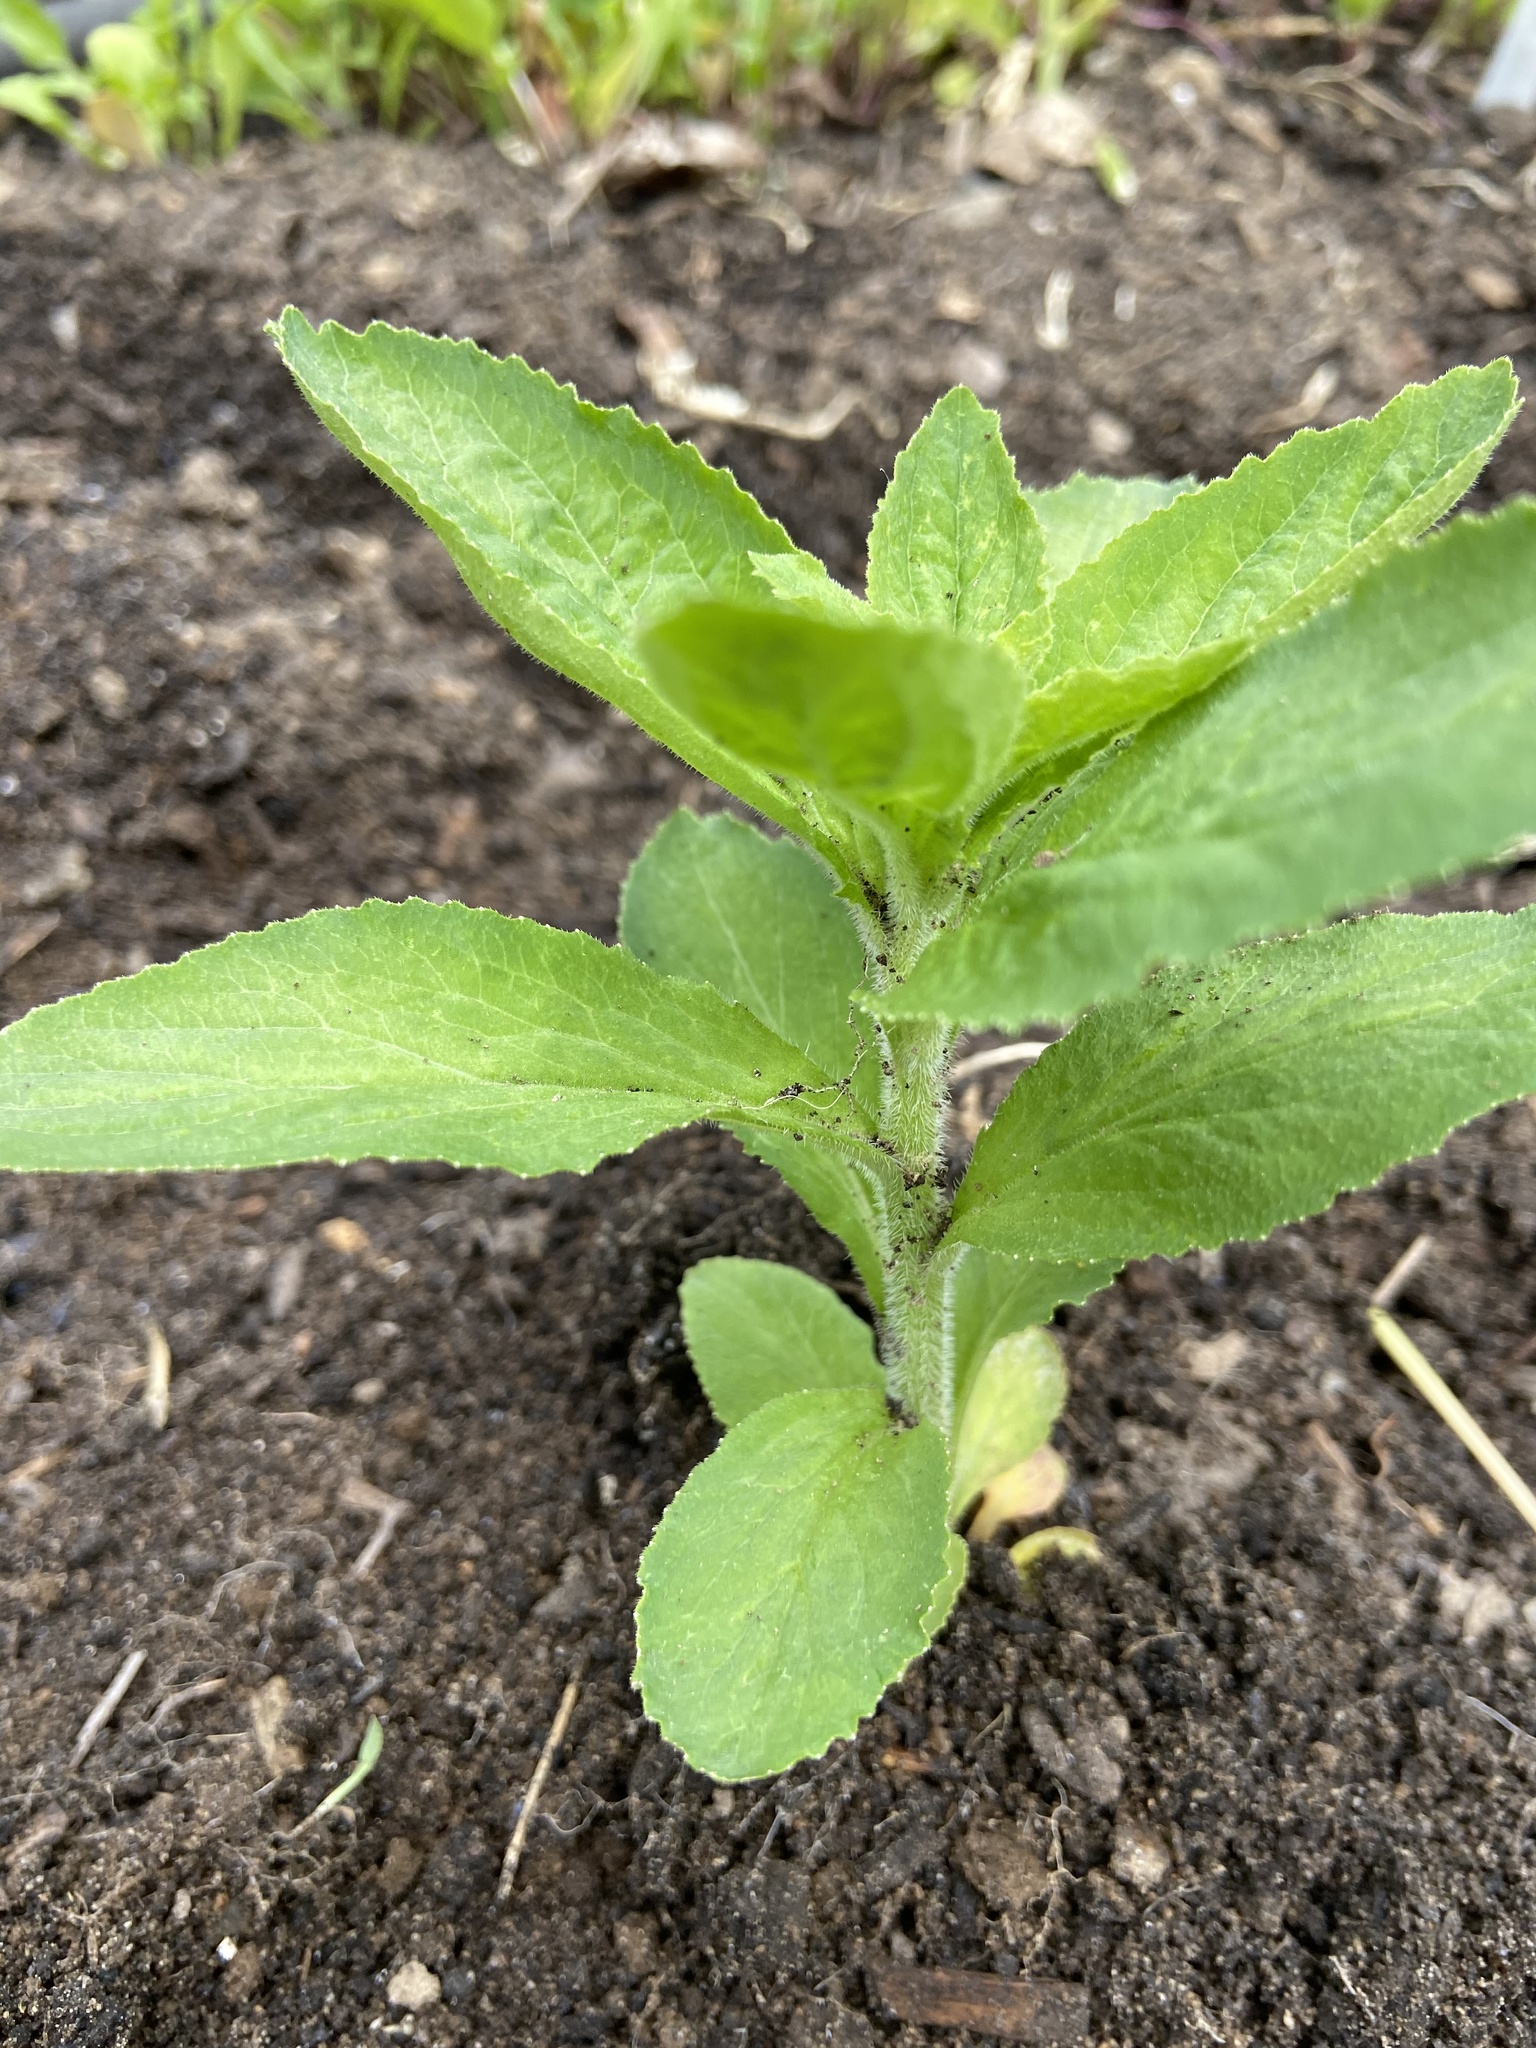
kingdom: Plantae
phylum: Tracheophyta
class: Magnoliopsida
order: Asterales
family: Campanulaceae
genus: Lobelia
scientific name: Lobelia inflata
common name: Indian tobacco
